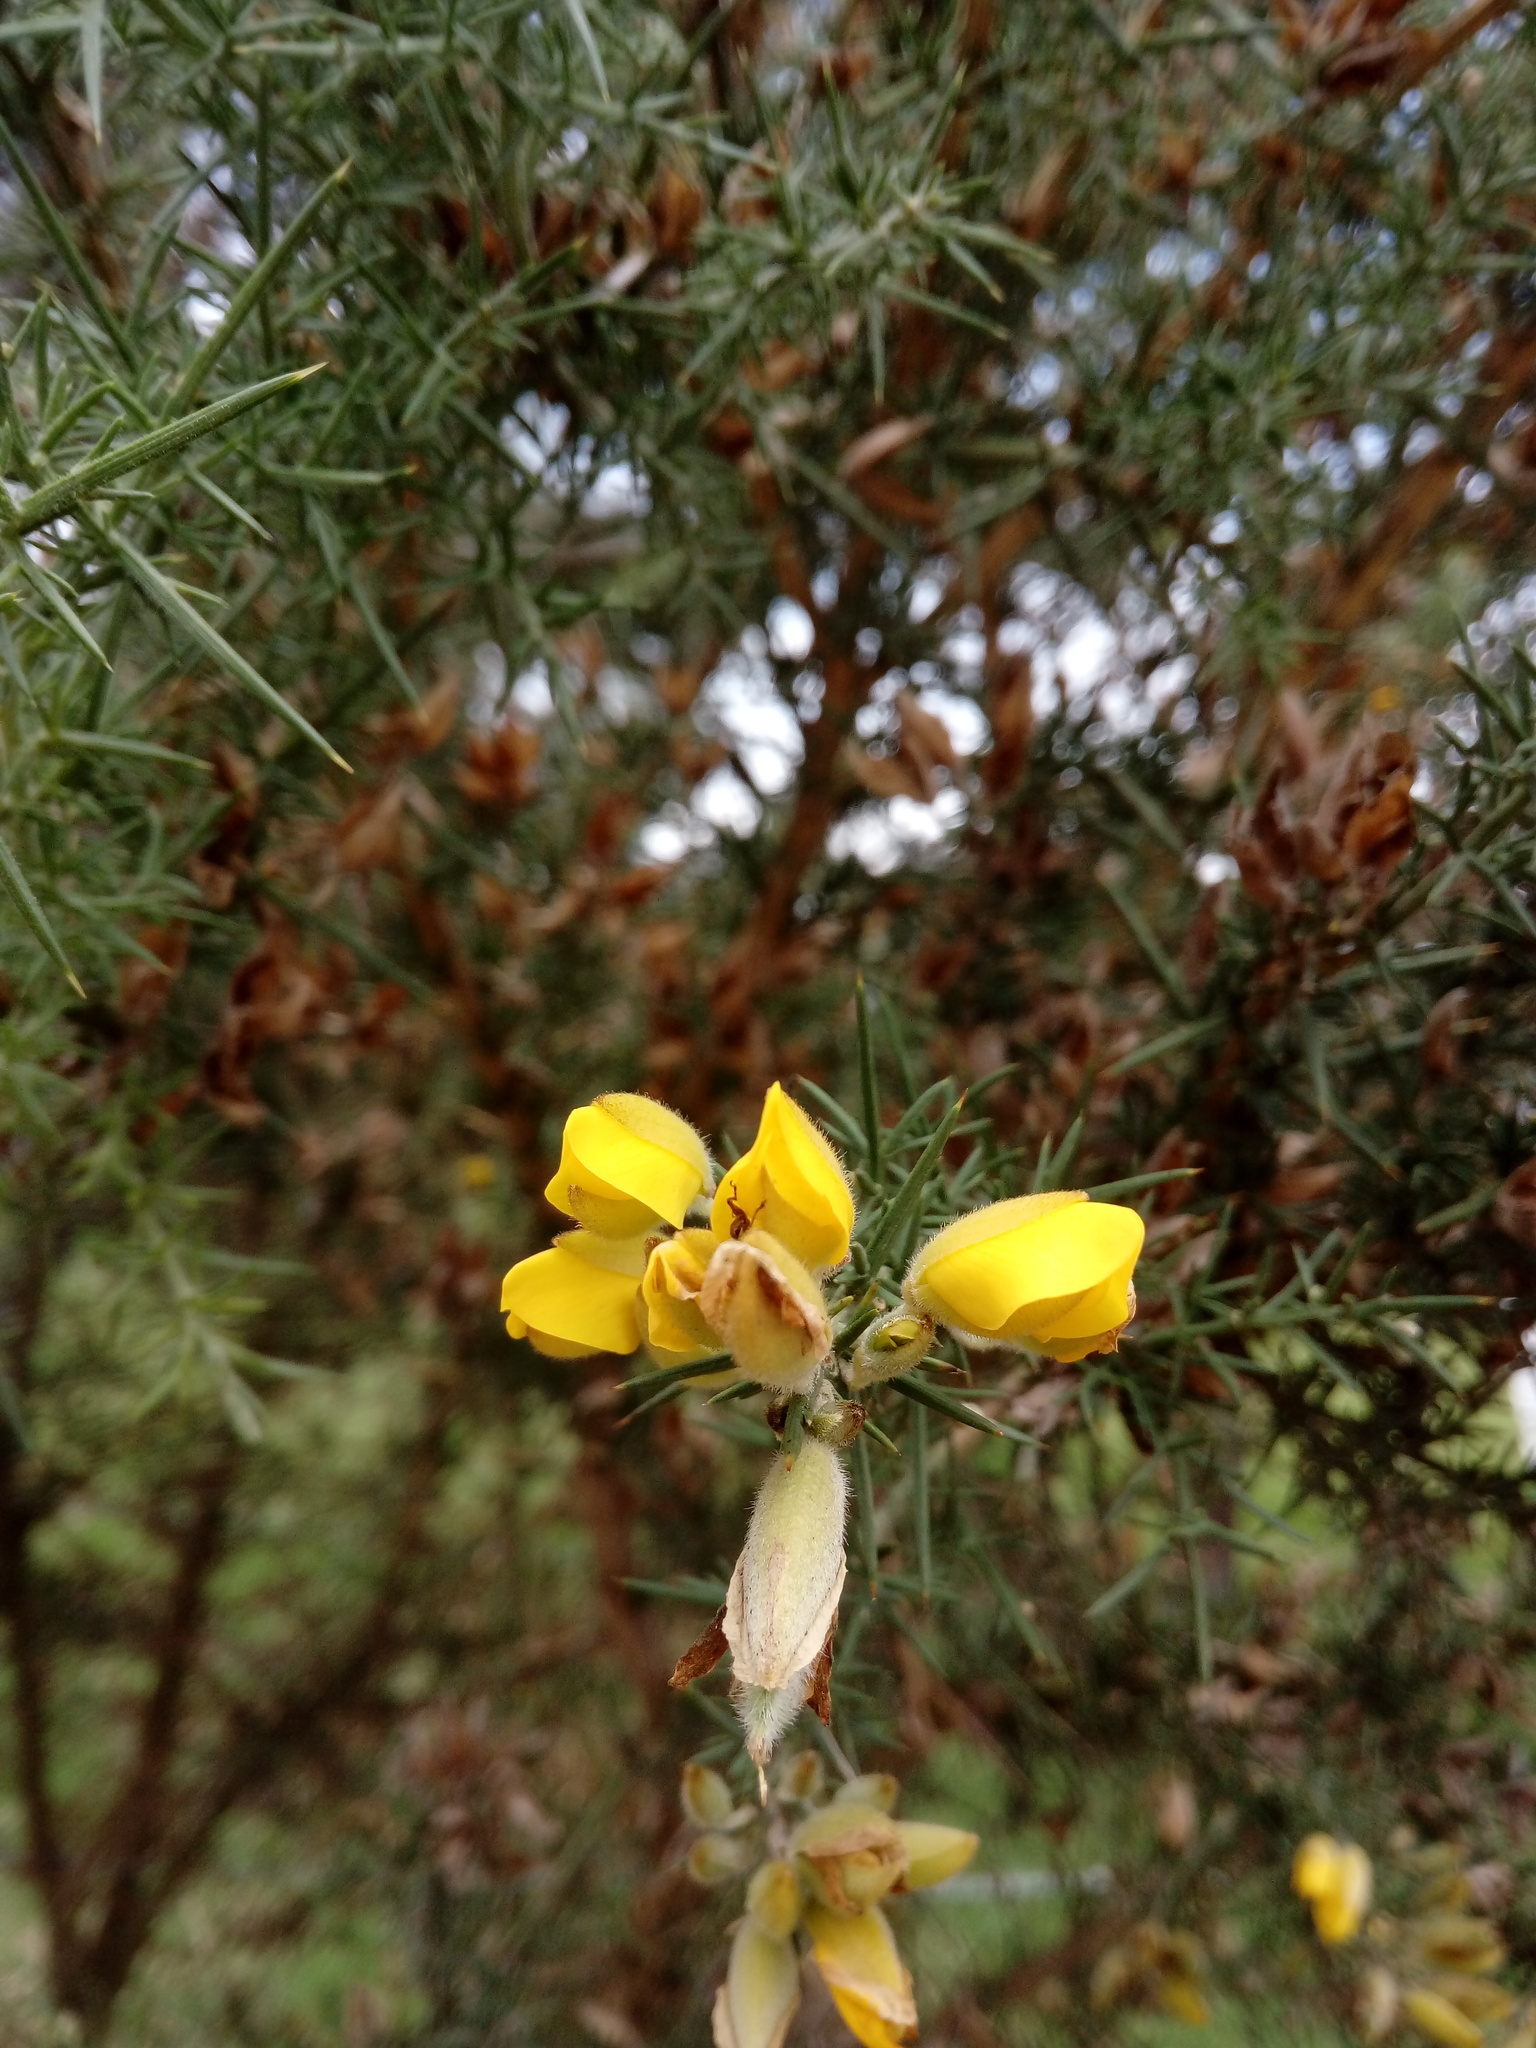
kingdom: Plantae
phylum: Tracheophyta
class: Magnoliopsida
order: Fabales
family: Fabaceae
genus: Ulex
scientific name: Ulex europaeus
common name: Common gorse
